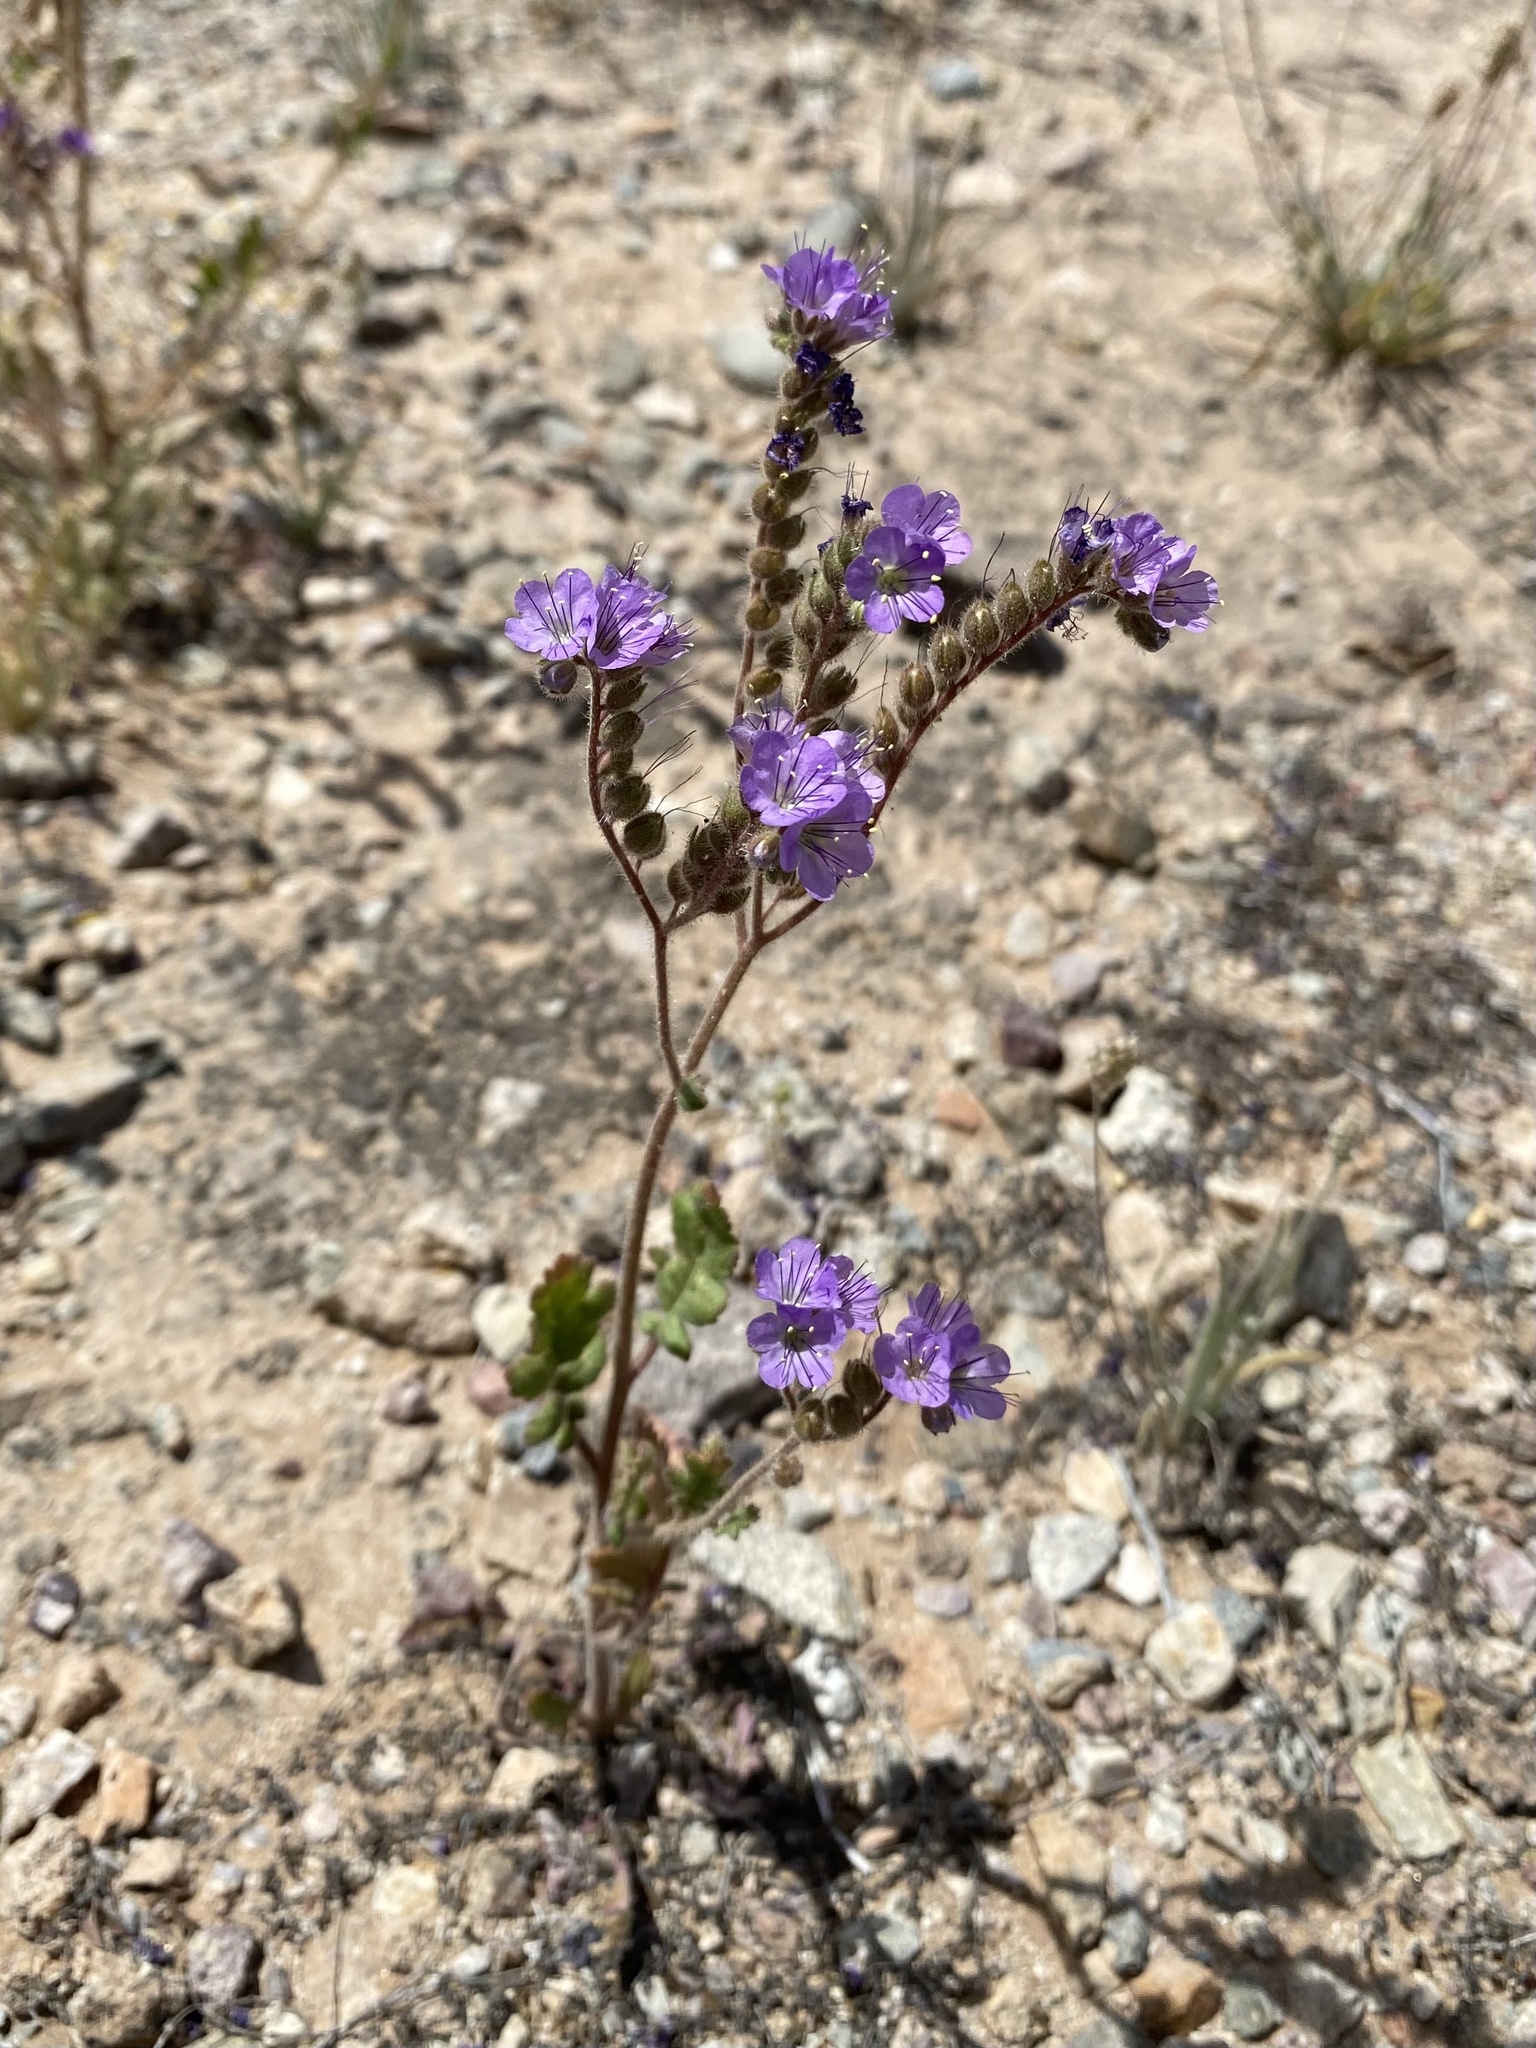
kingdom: Plantae
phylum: Tracheophyta
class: Magnoliopsida
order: Boraginales
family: Hydrophyllaceae
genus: Phacelia
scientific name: Phacelia crenulata
